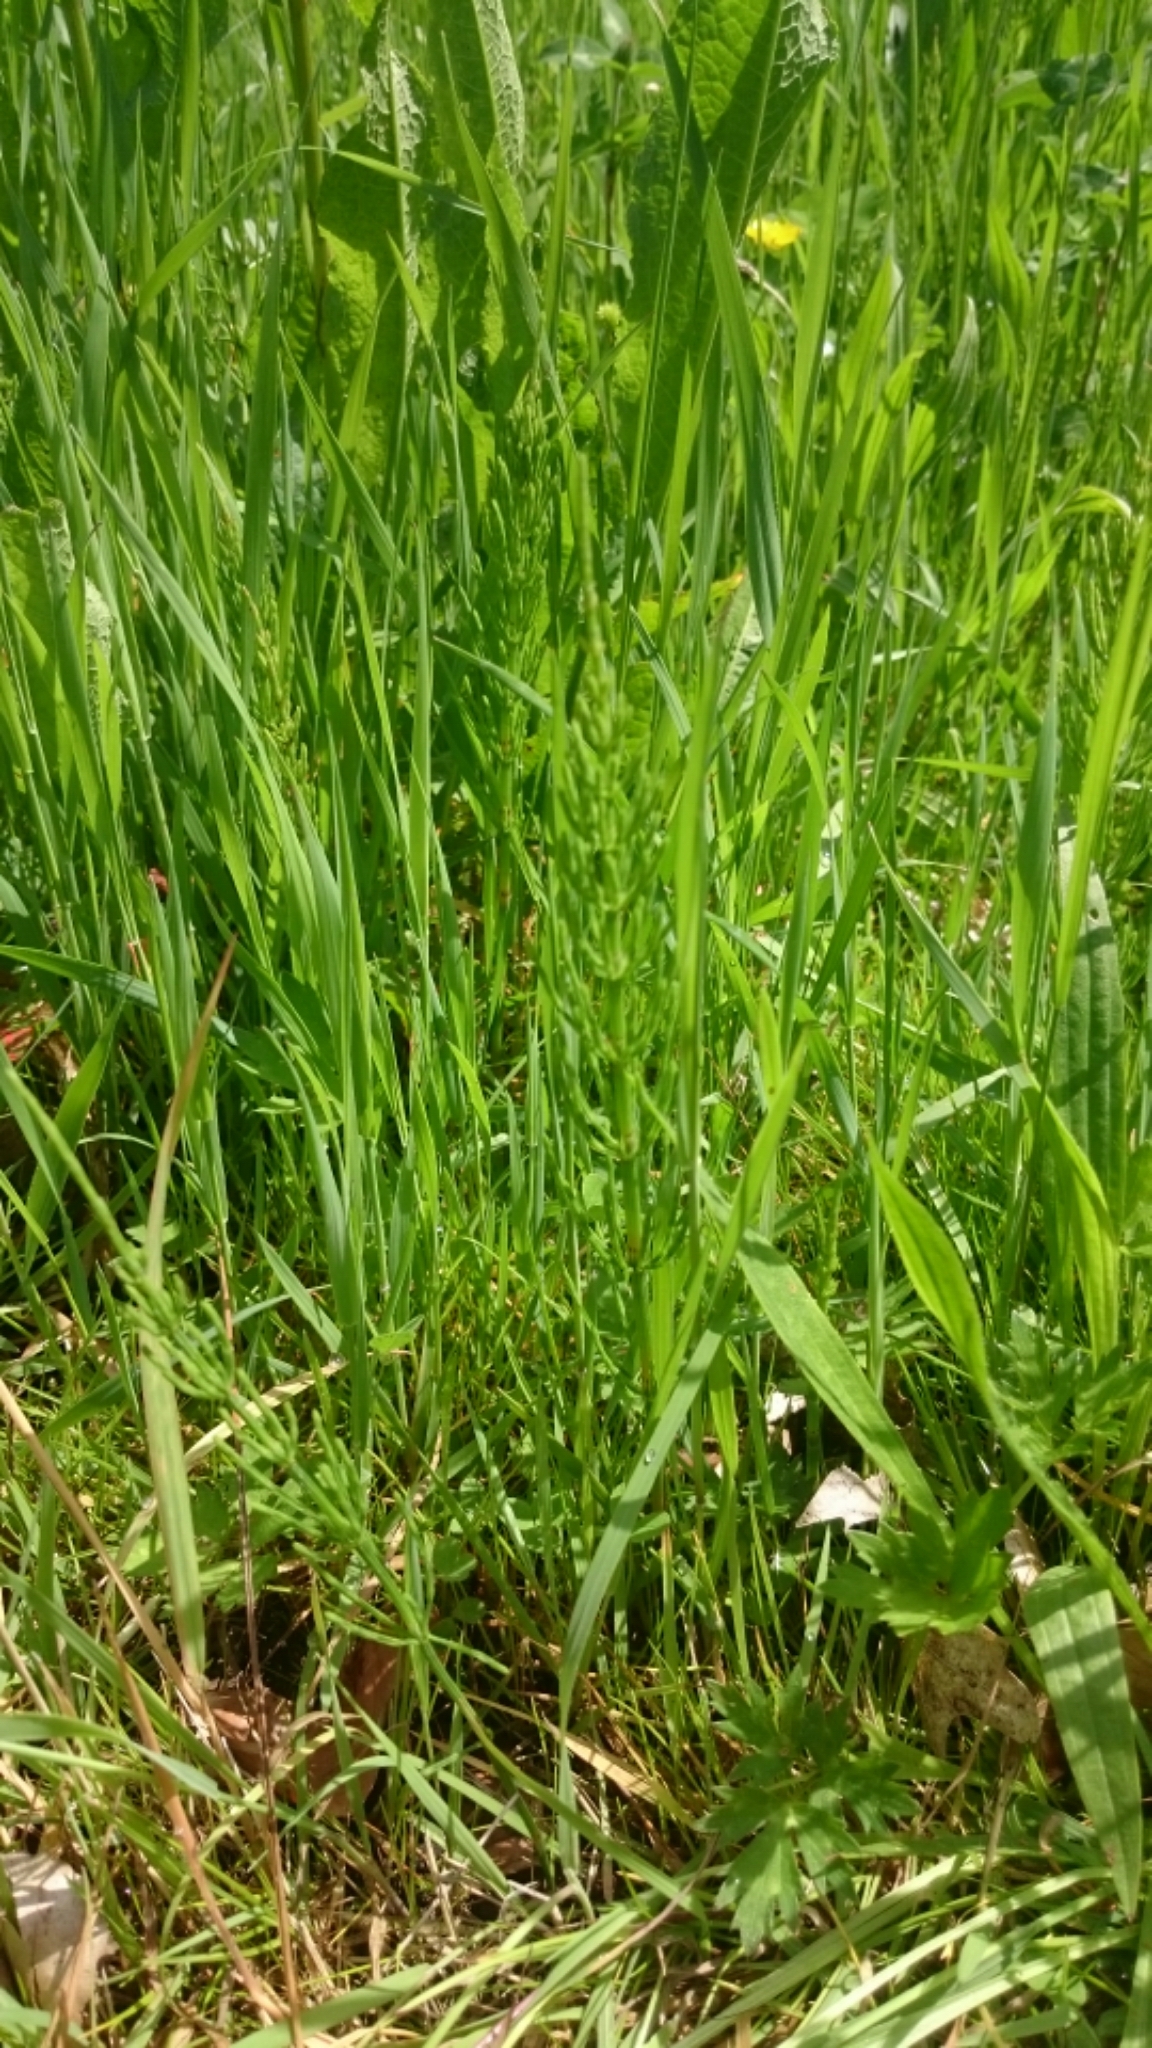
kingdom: Plantae
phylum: Tracheophyta
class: Polypodiopsida
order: Equisetales
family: Equisetaceae
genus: Equisetum
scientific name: Equisetum arvense
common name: Field horsetail
